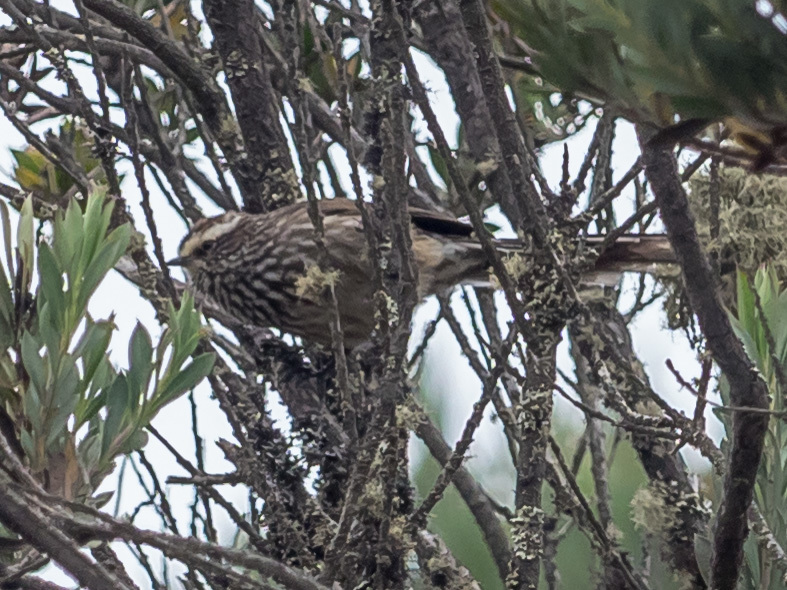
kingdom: Animalia
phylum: Chordata
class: Aves
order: Passeriformes
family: Furnariidae
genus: Leptasthenura
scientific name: Leptasthenura andicola
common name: Andean tit-spinetail
